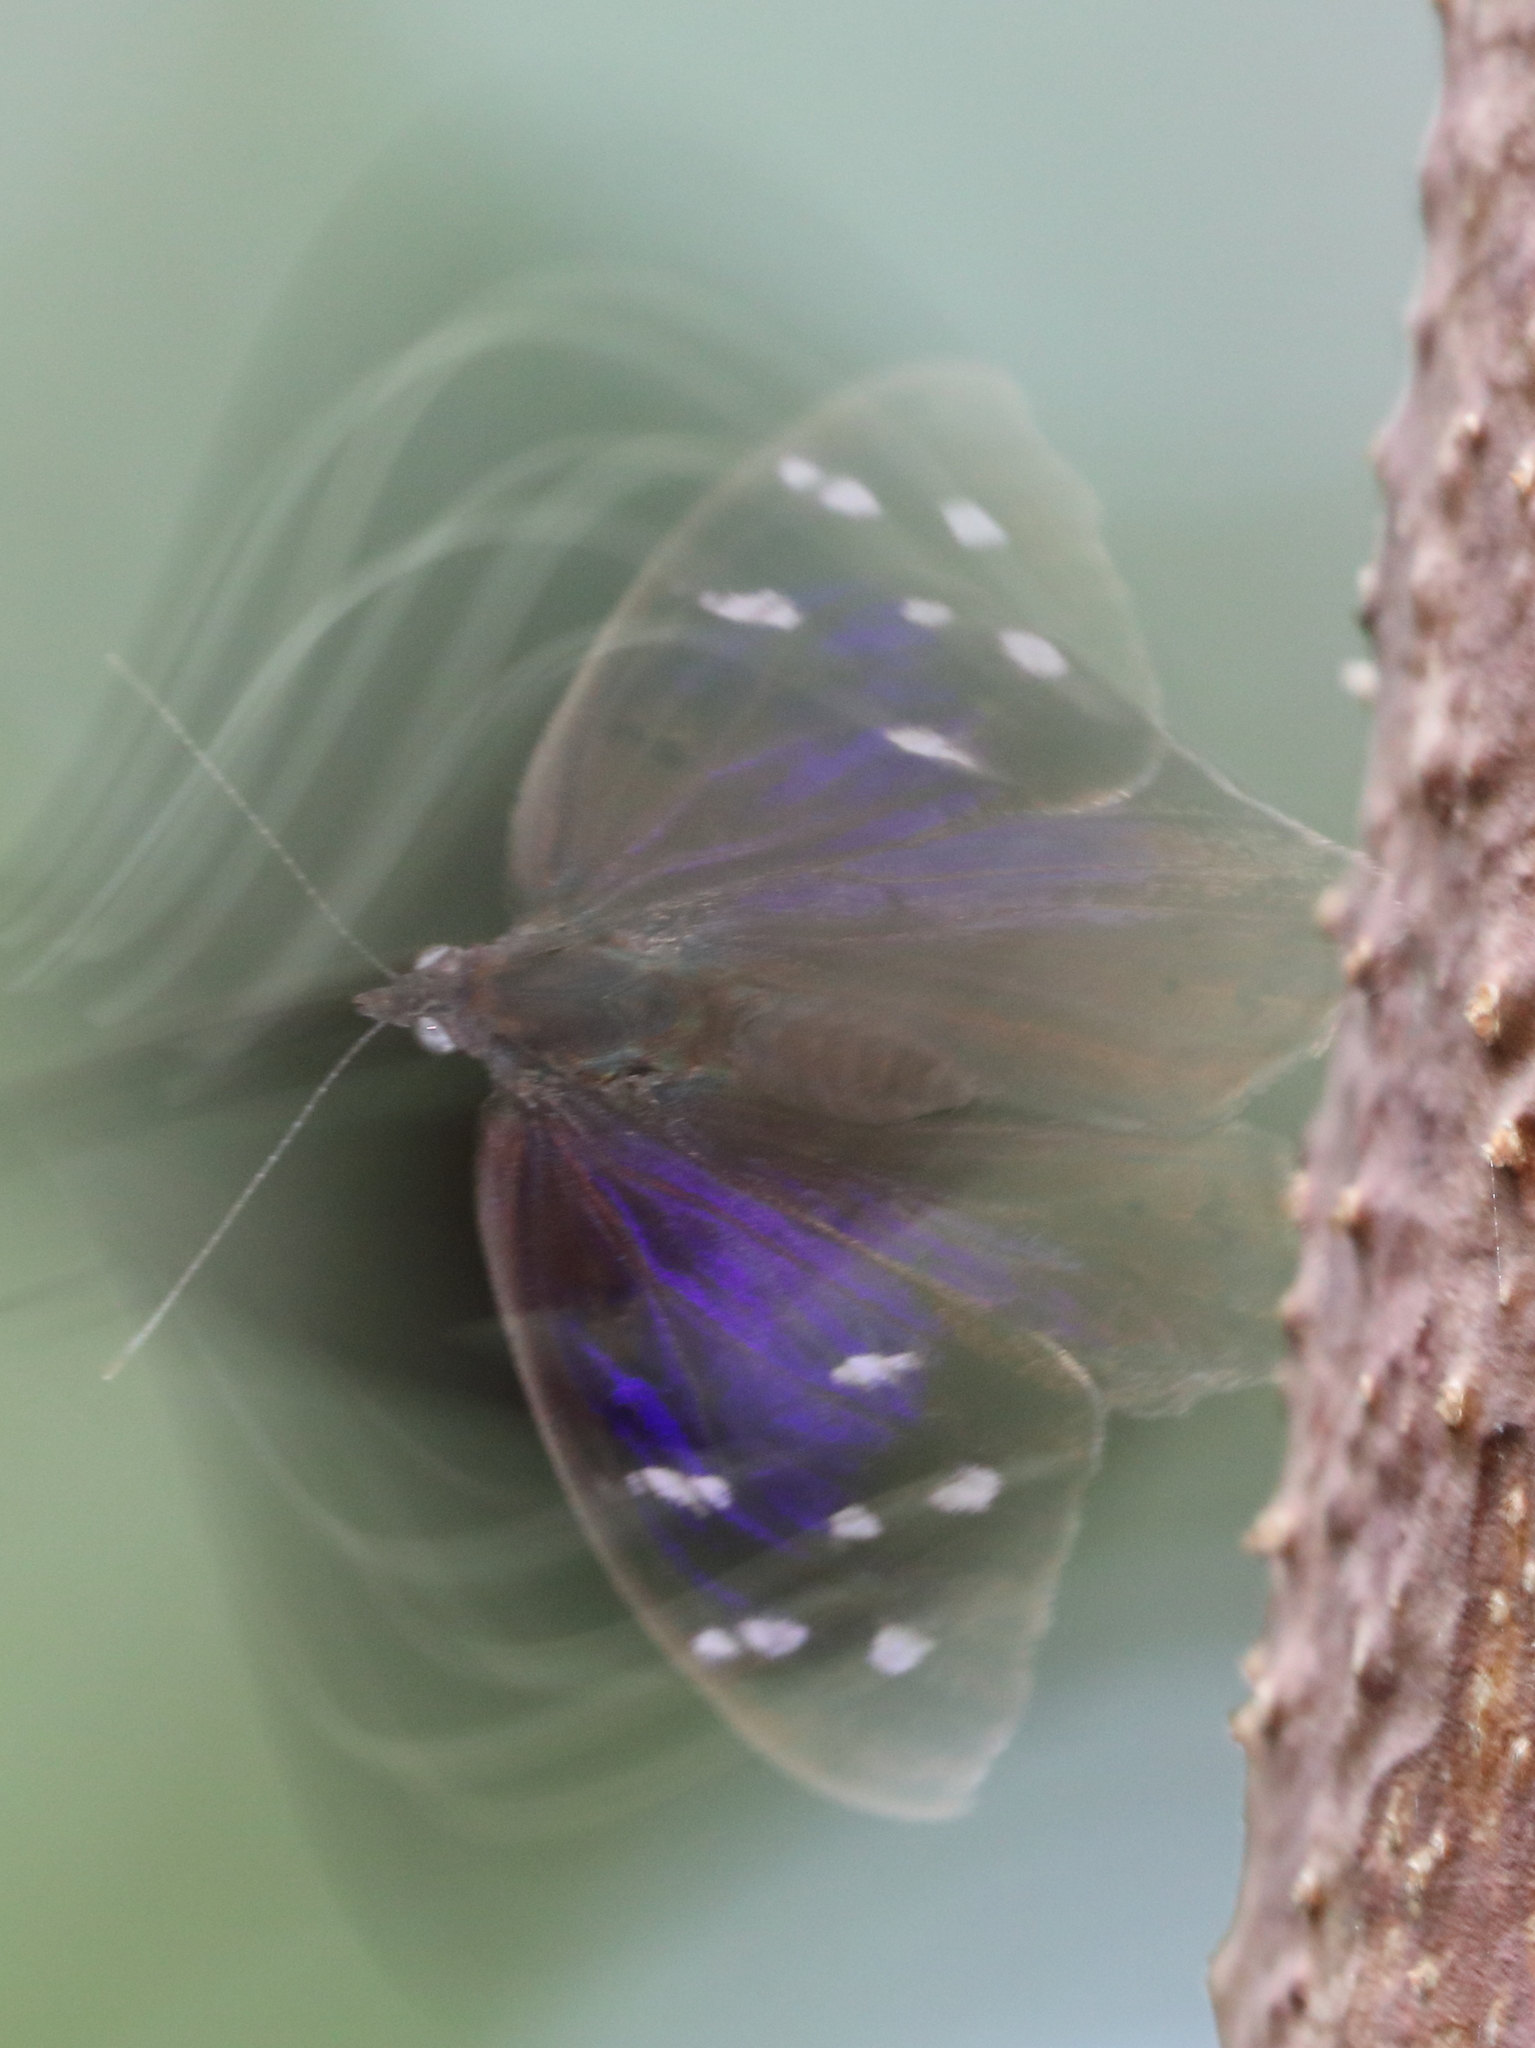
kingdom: Animalia
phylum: Arthropoda
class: Insecta
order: Lepidoptera
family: Nymphalidae
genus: Eunica
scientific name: Eunica tatila
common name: Florida purplewing
